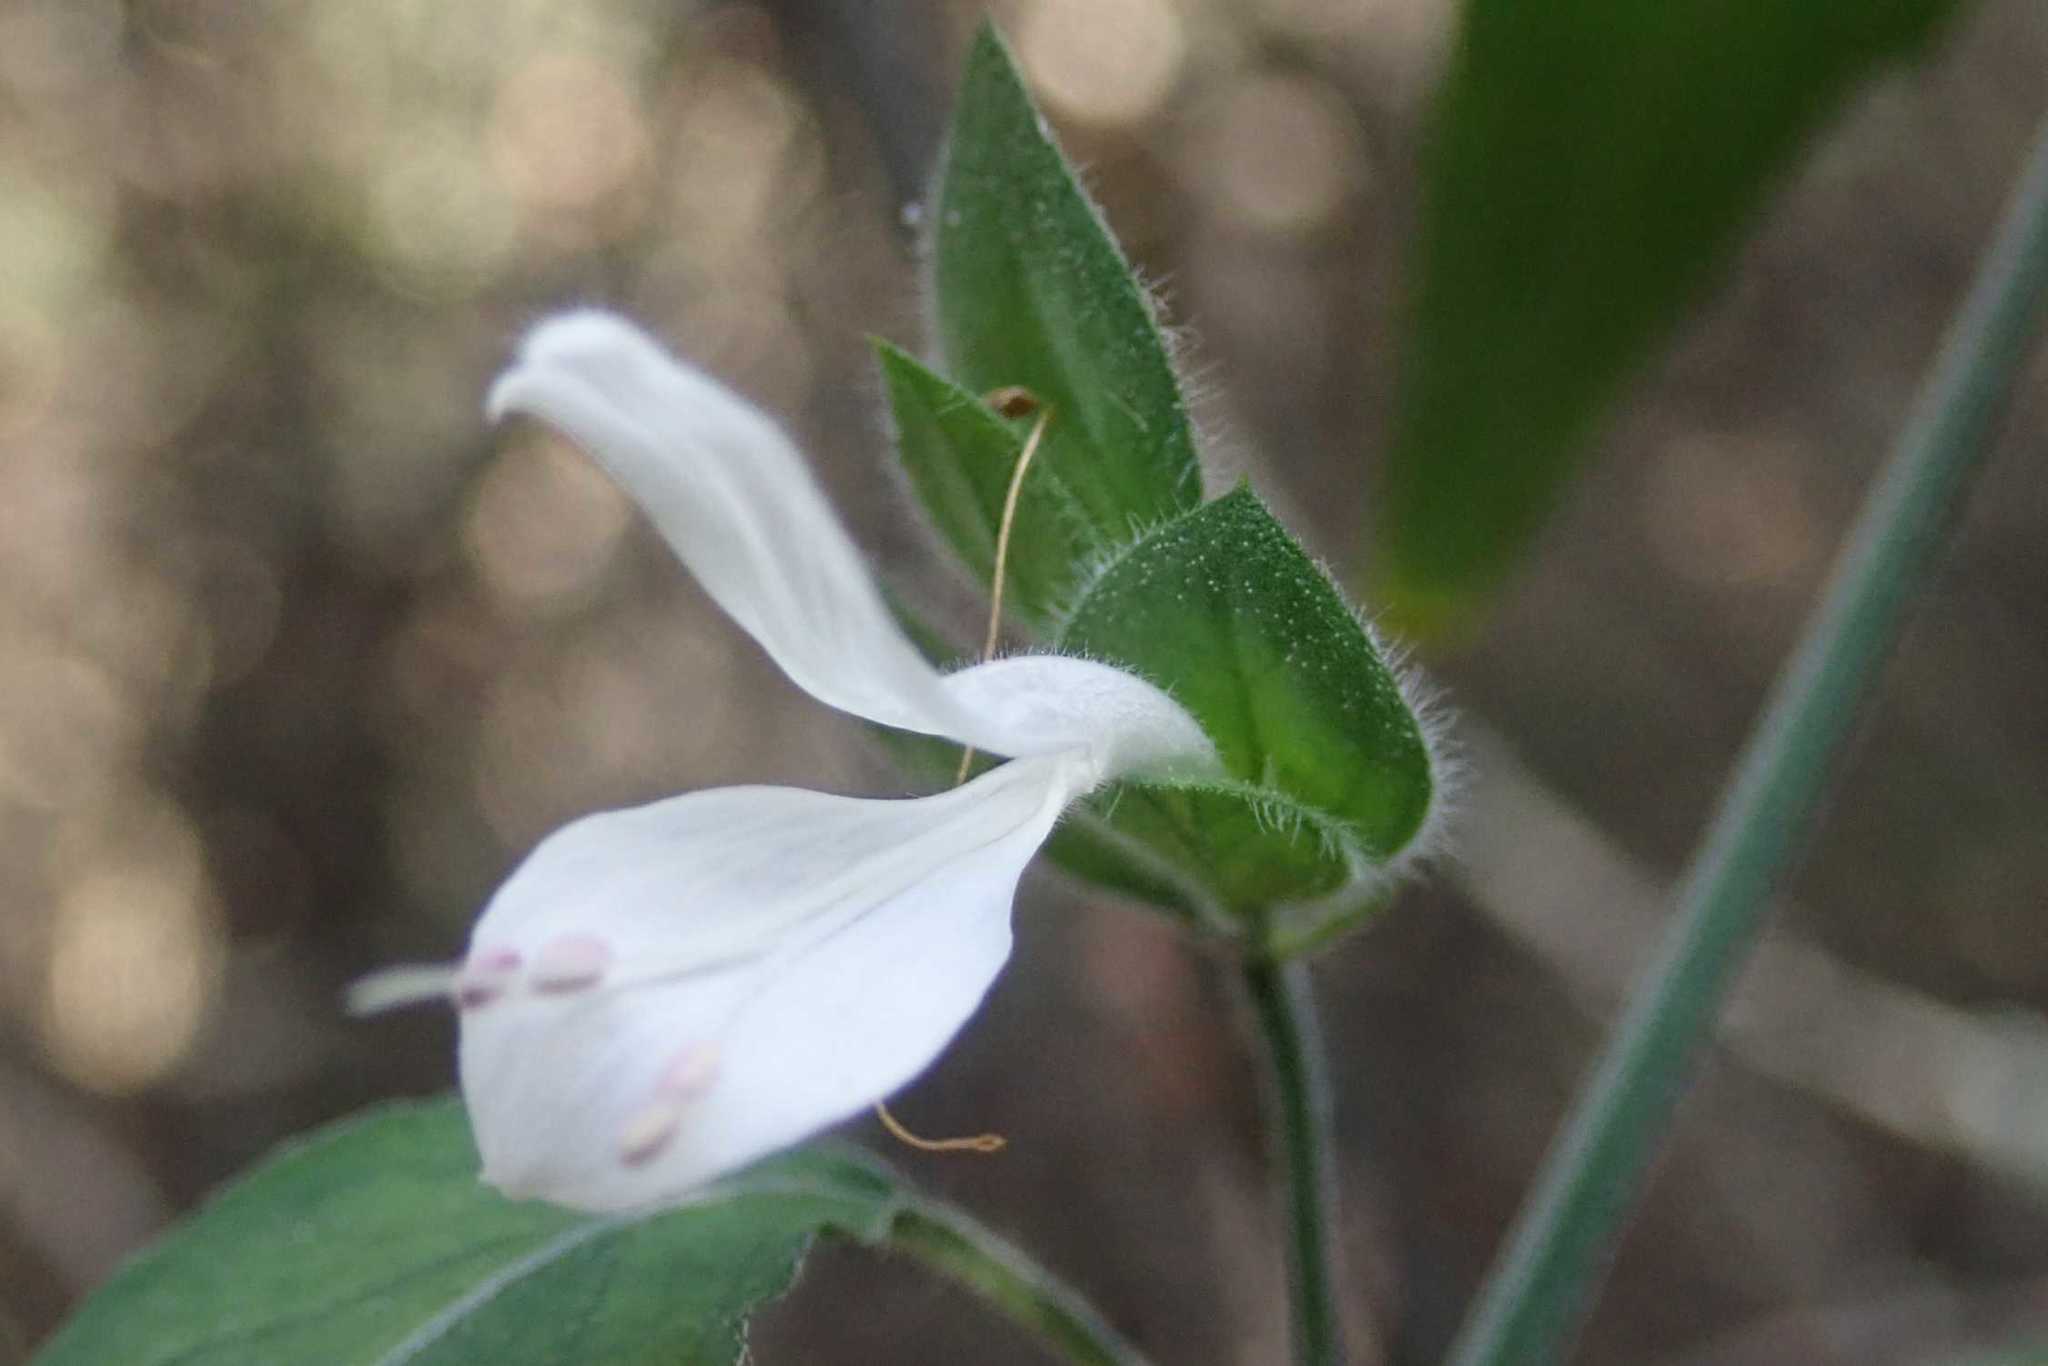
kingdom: Plantae
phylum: Tracheophyta
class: Magnoliopsida
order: Lamiales
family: Acanthaceae
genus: Dicliptera
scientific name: Dicliptera extenta
